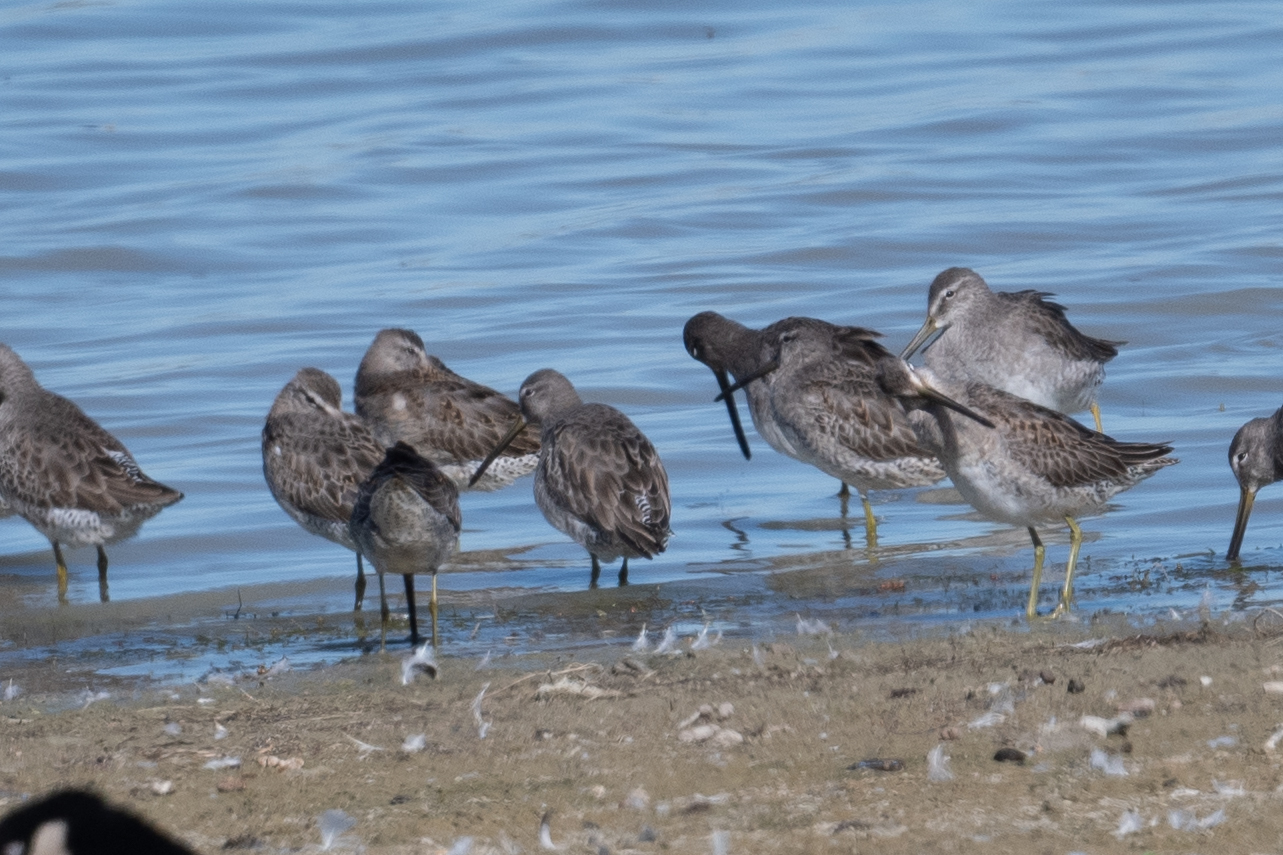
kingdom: Animalia
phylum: Chordata
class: Aves
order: Charadriiformes
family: Scolopacidae
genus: Limnodromus
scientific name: Limnodromus scolopaceus
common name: Long-billed dowitcher
